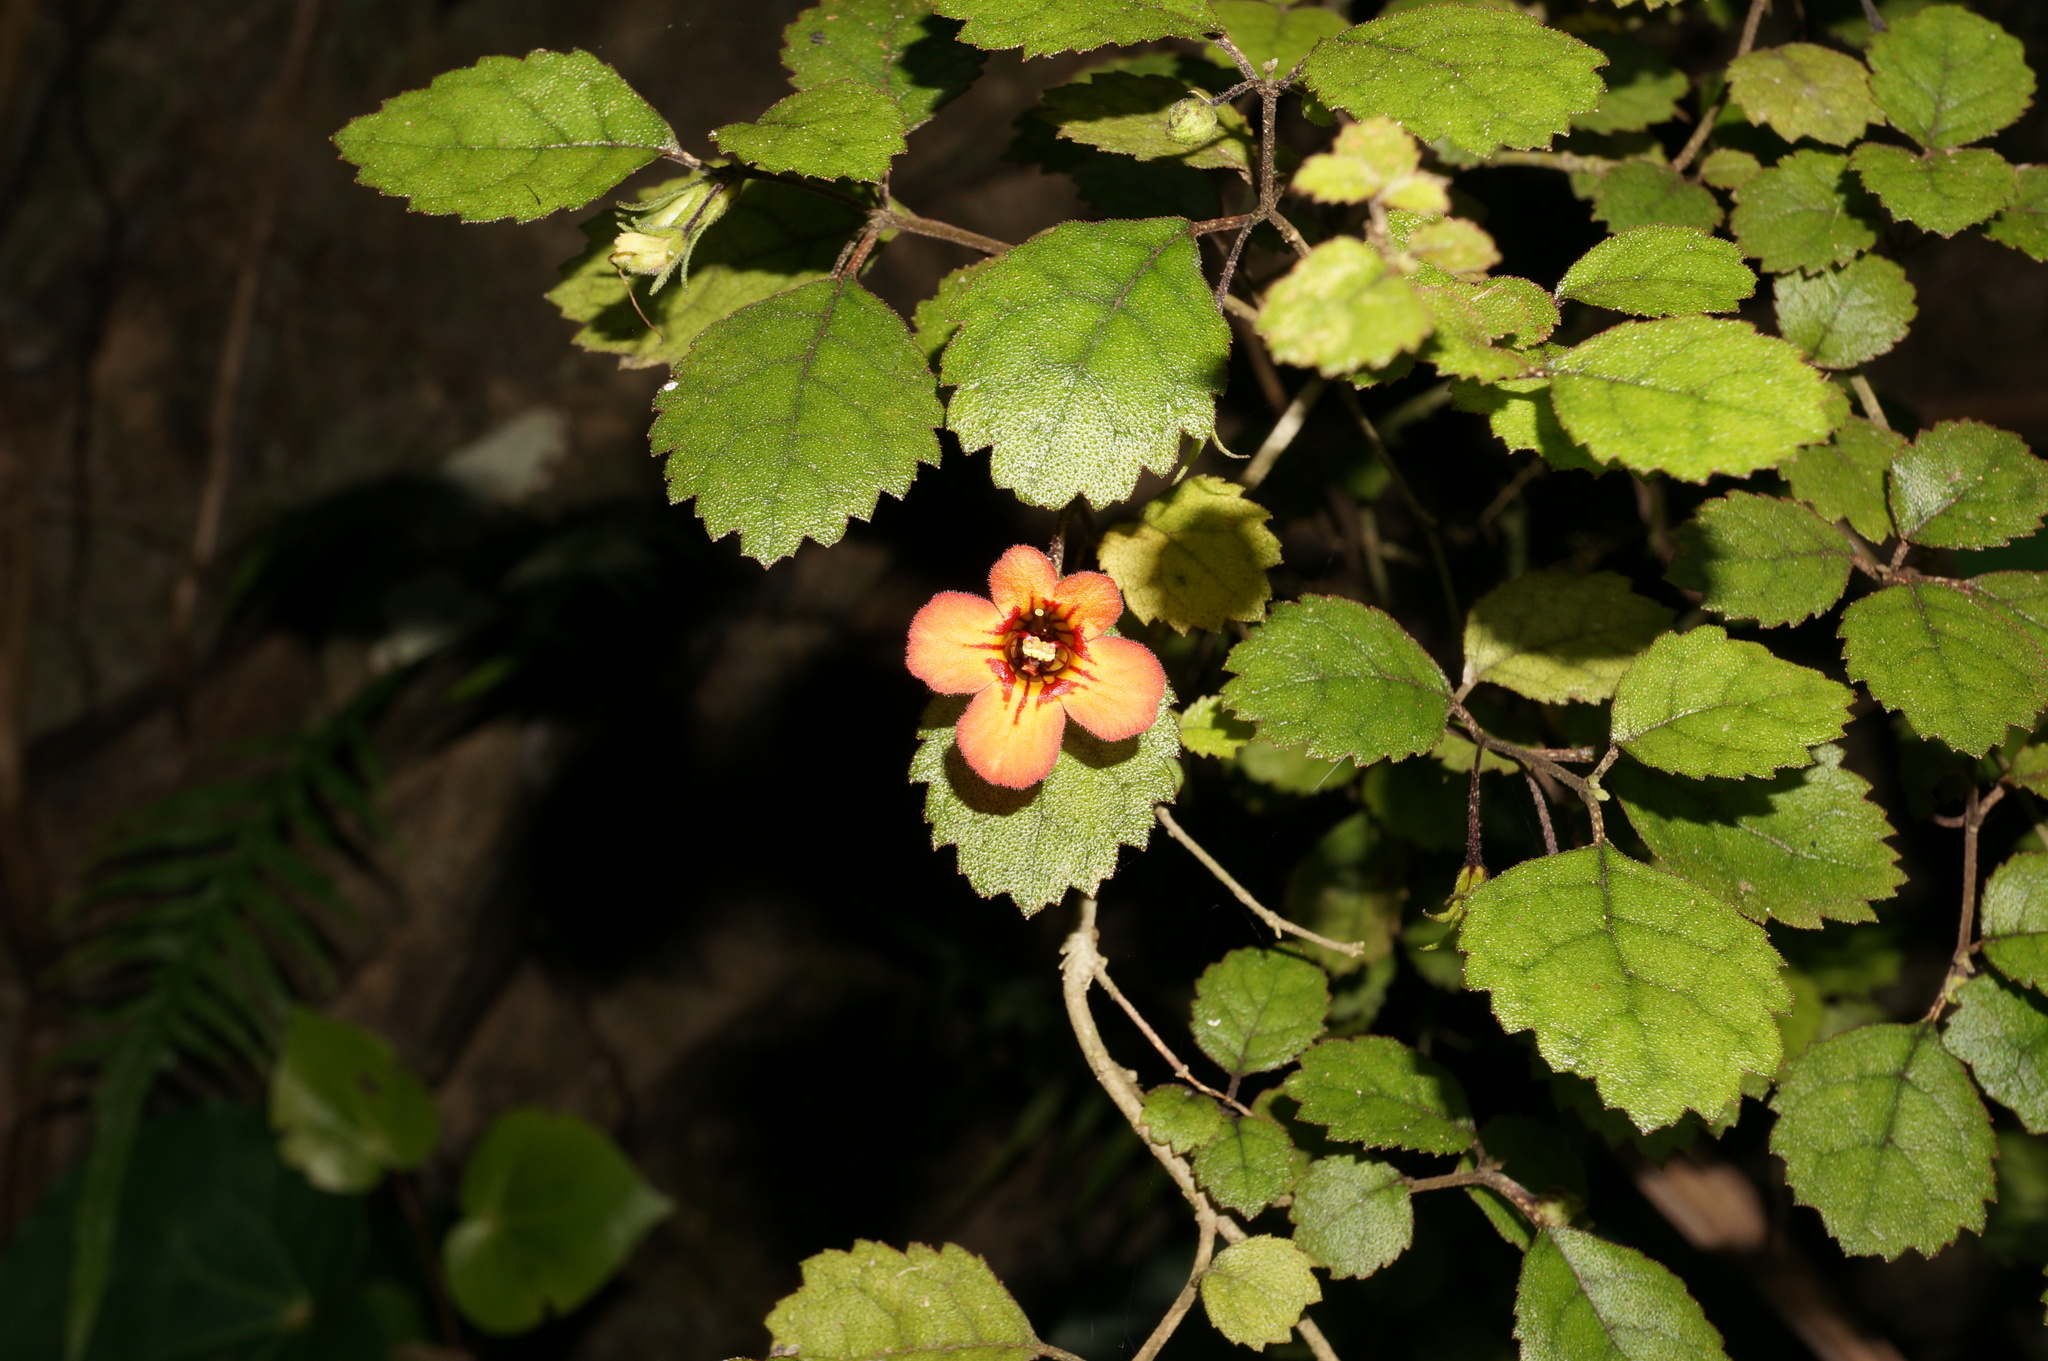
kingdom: Plantae
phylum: Tracheophyta
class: Magnoliopsida
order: Lamiales
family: Gesneriaceae
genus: Rhabdothamnus
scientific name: Rhabdothamnus solandri
